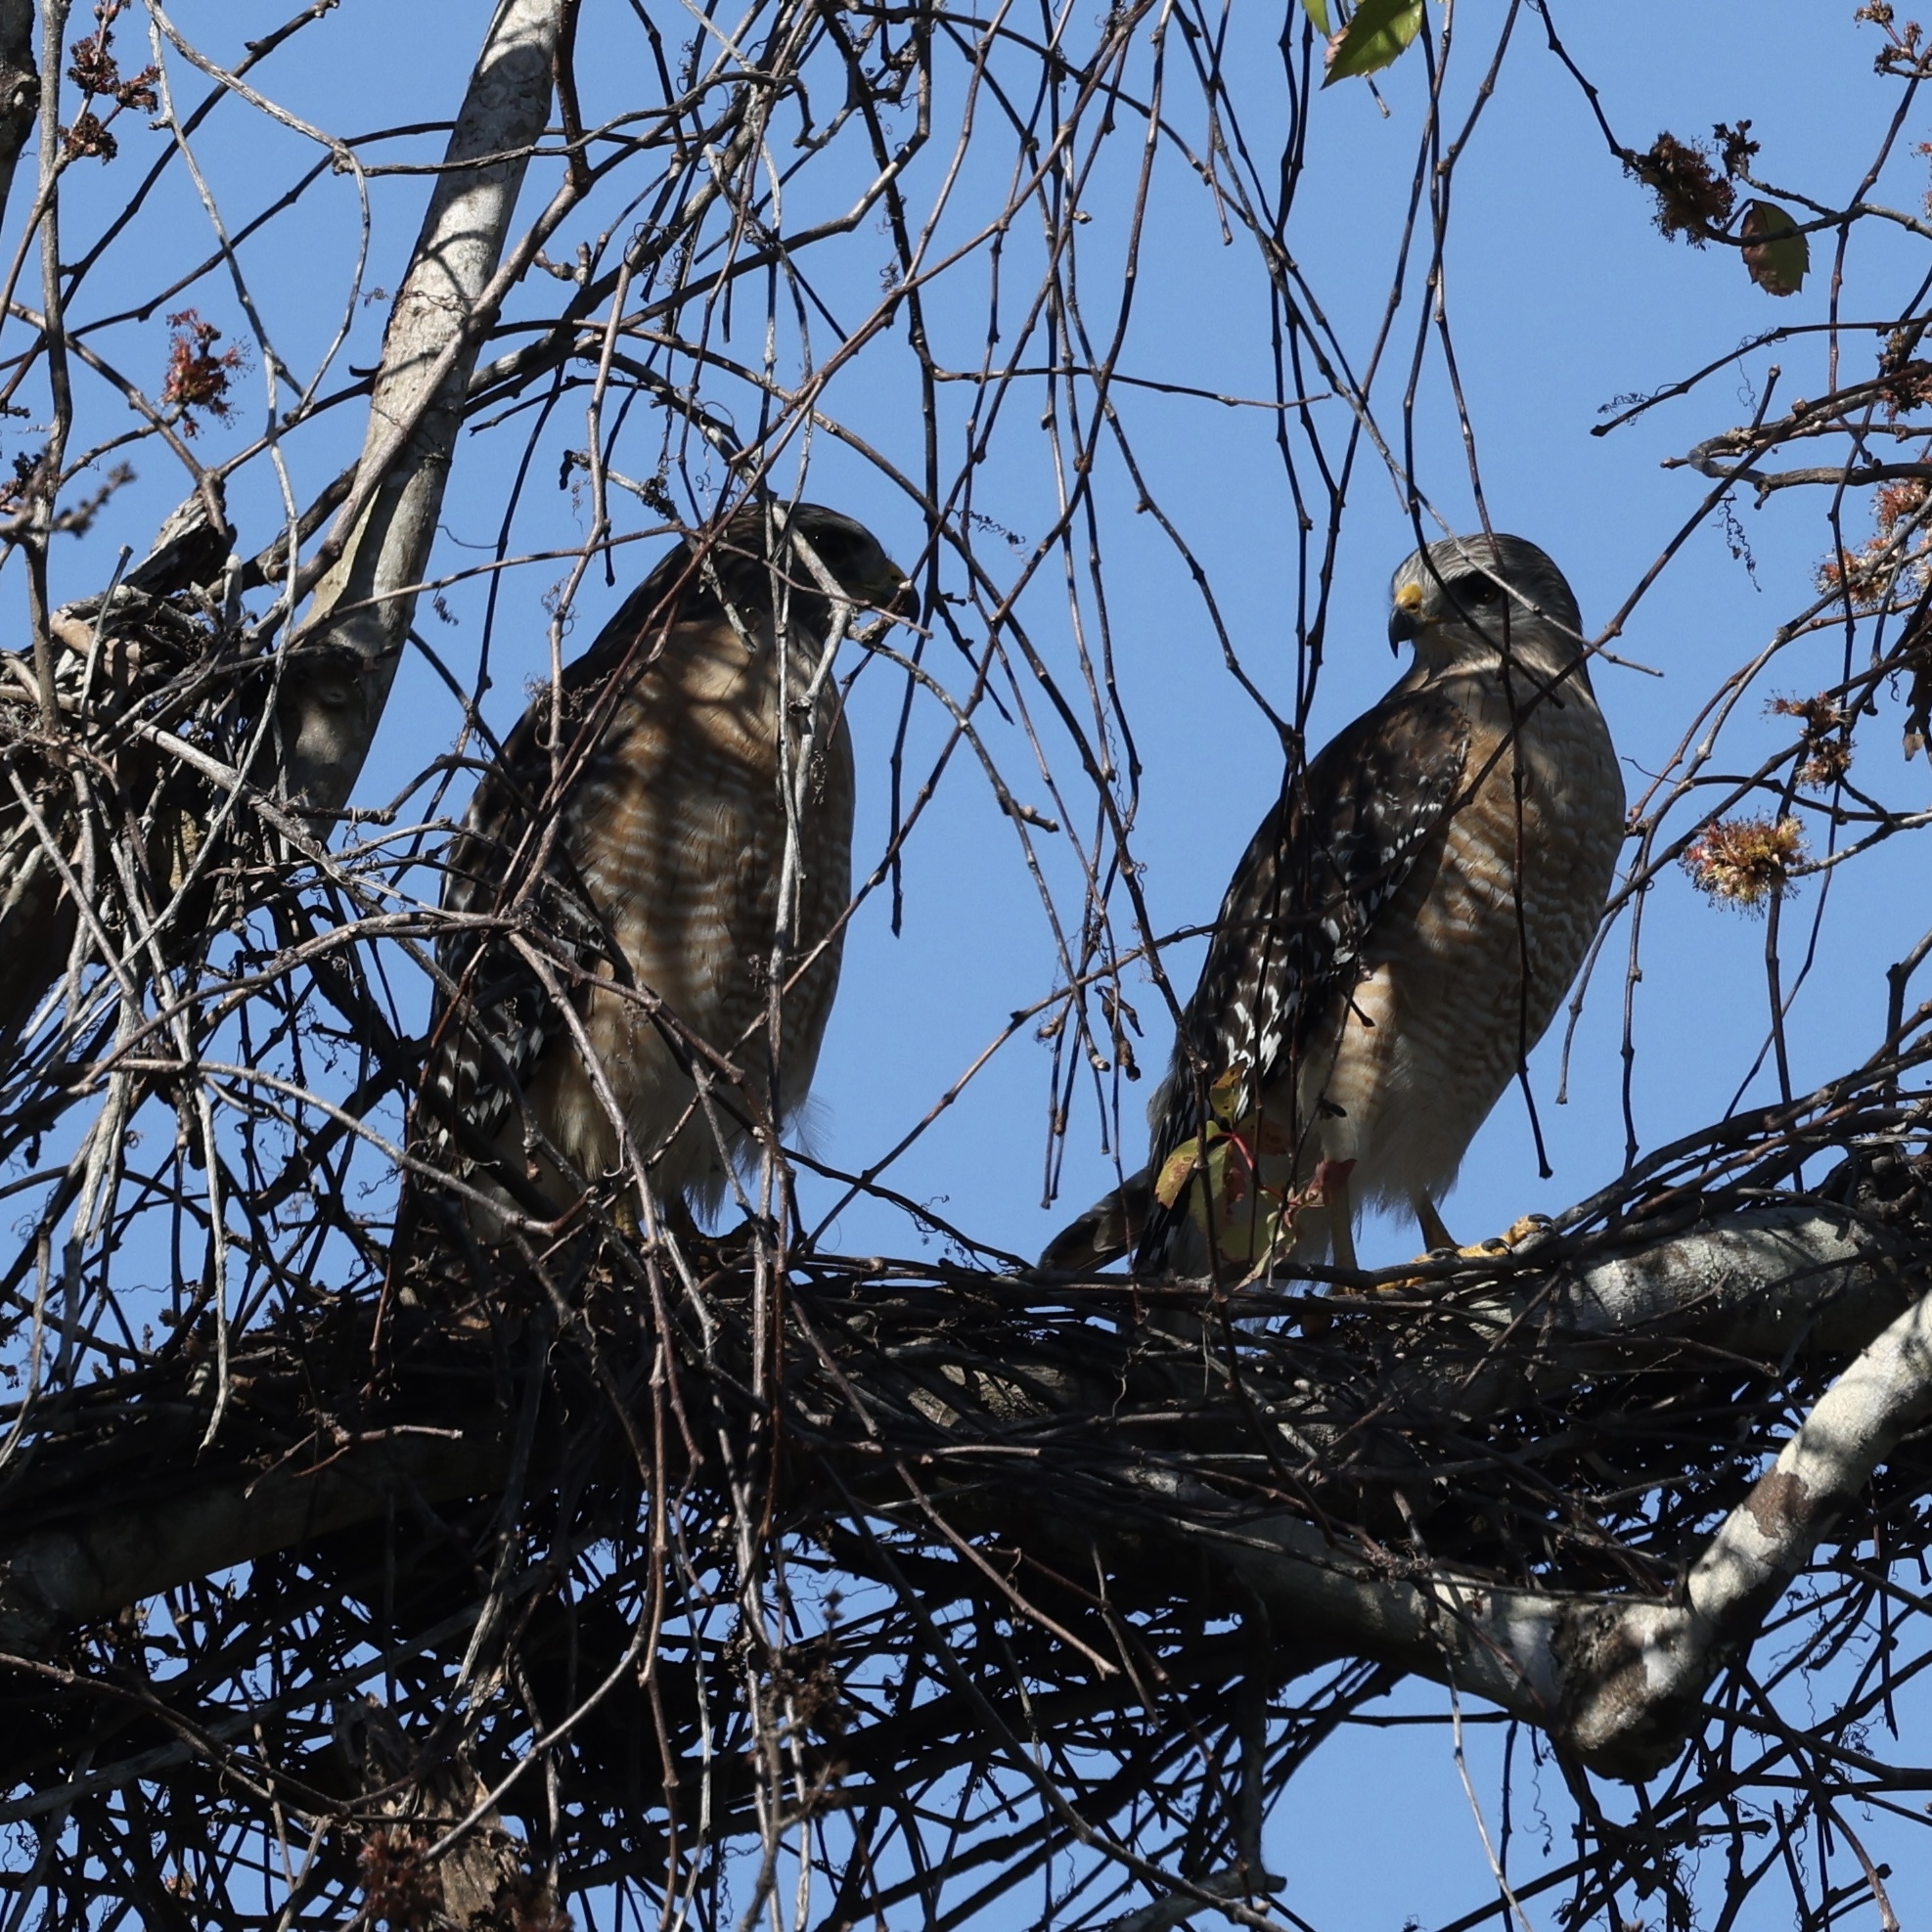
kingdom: Animalia
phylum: Chordata
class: Aves
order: Accipitriformes
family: Accipitridae
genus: Buteo
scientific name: Buteo lineatus
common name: Red-shouldered hawk
